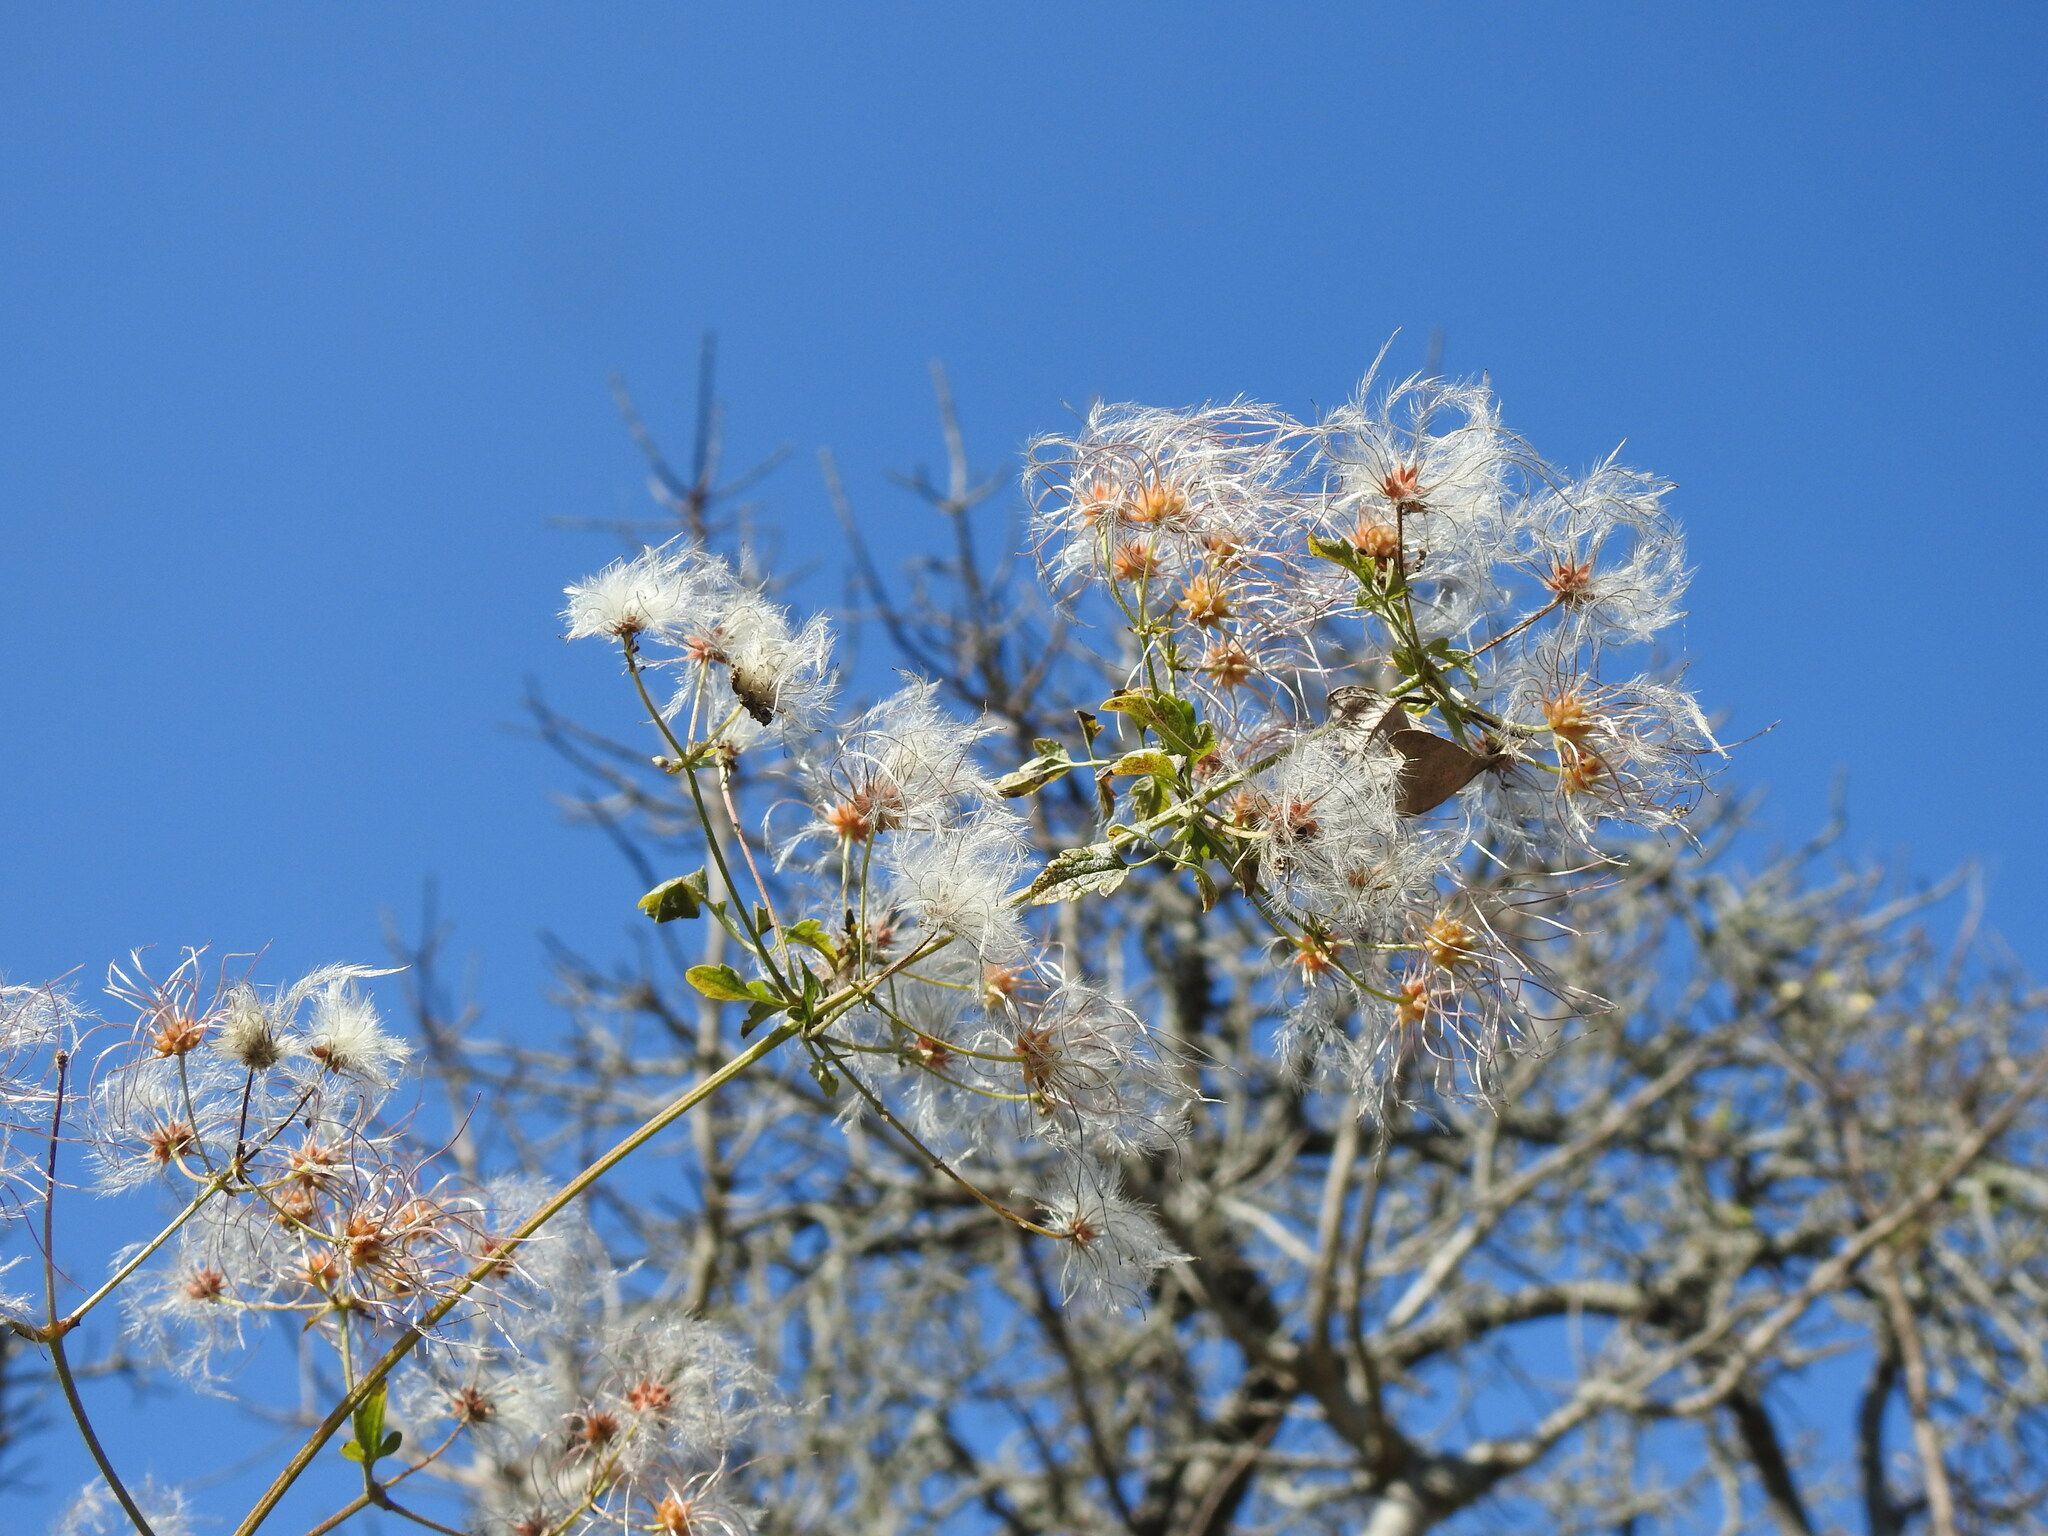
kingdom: Plantae
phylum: Tracheophyta
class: Magnoliopsida
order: Ranunculales
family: Ranunculaceae
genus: Clematis
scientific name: Clematis brachiata
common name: Traveler's-joy
